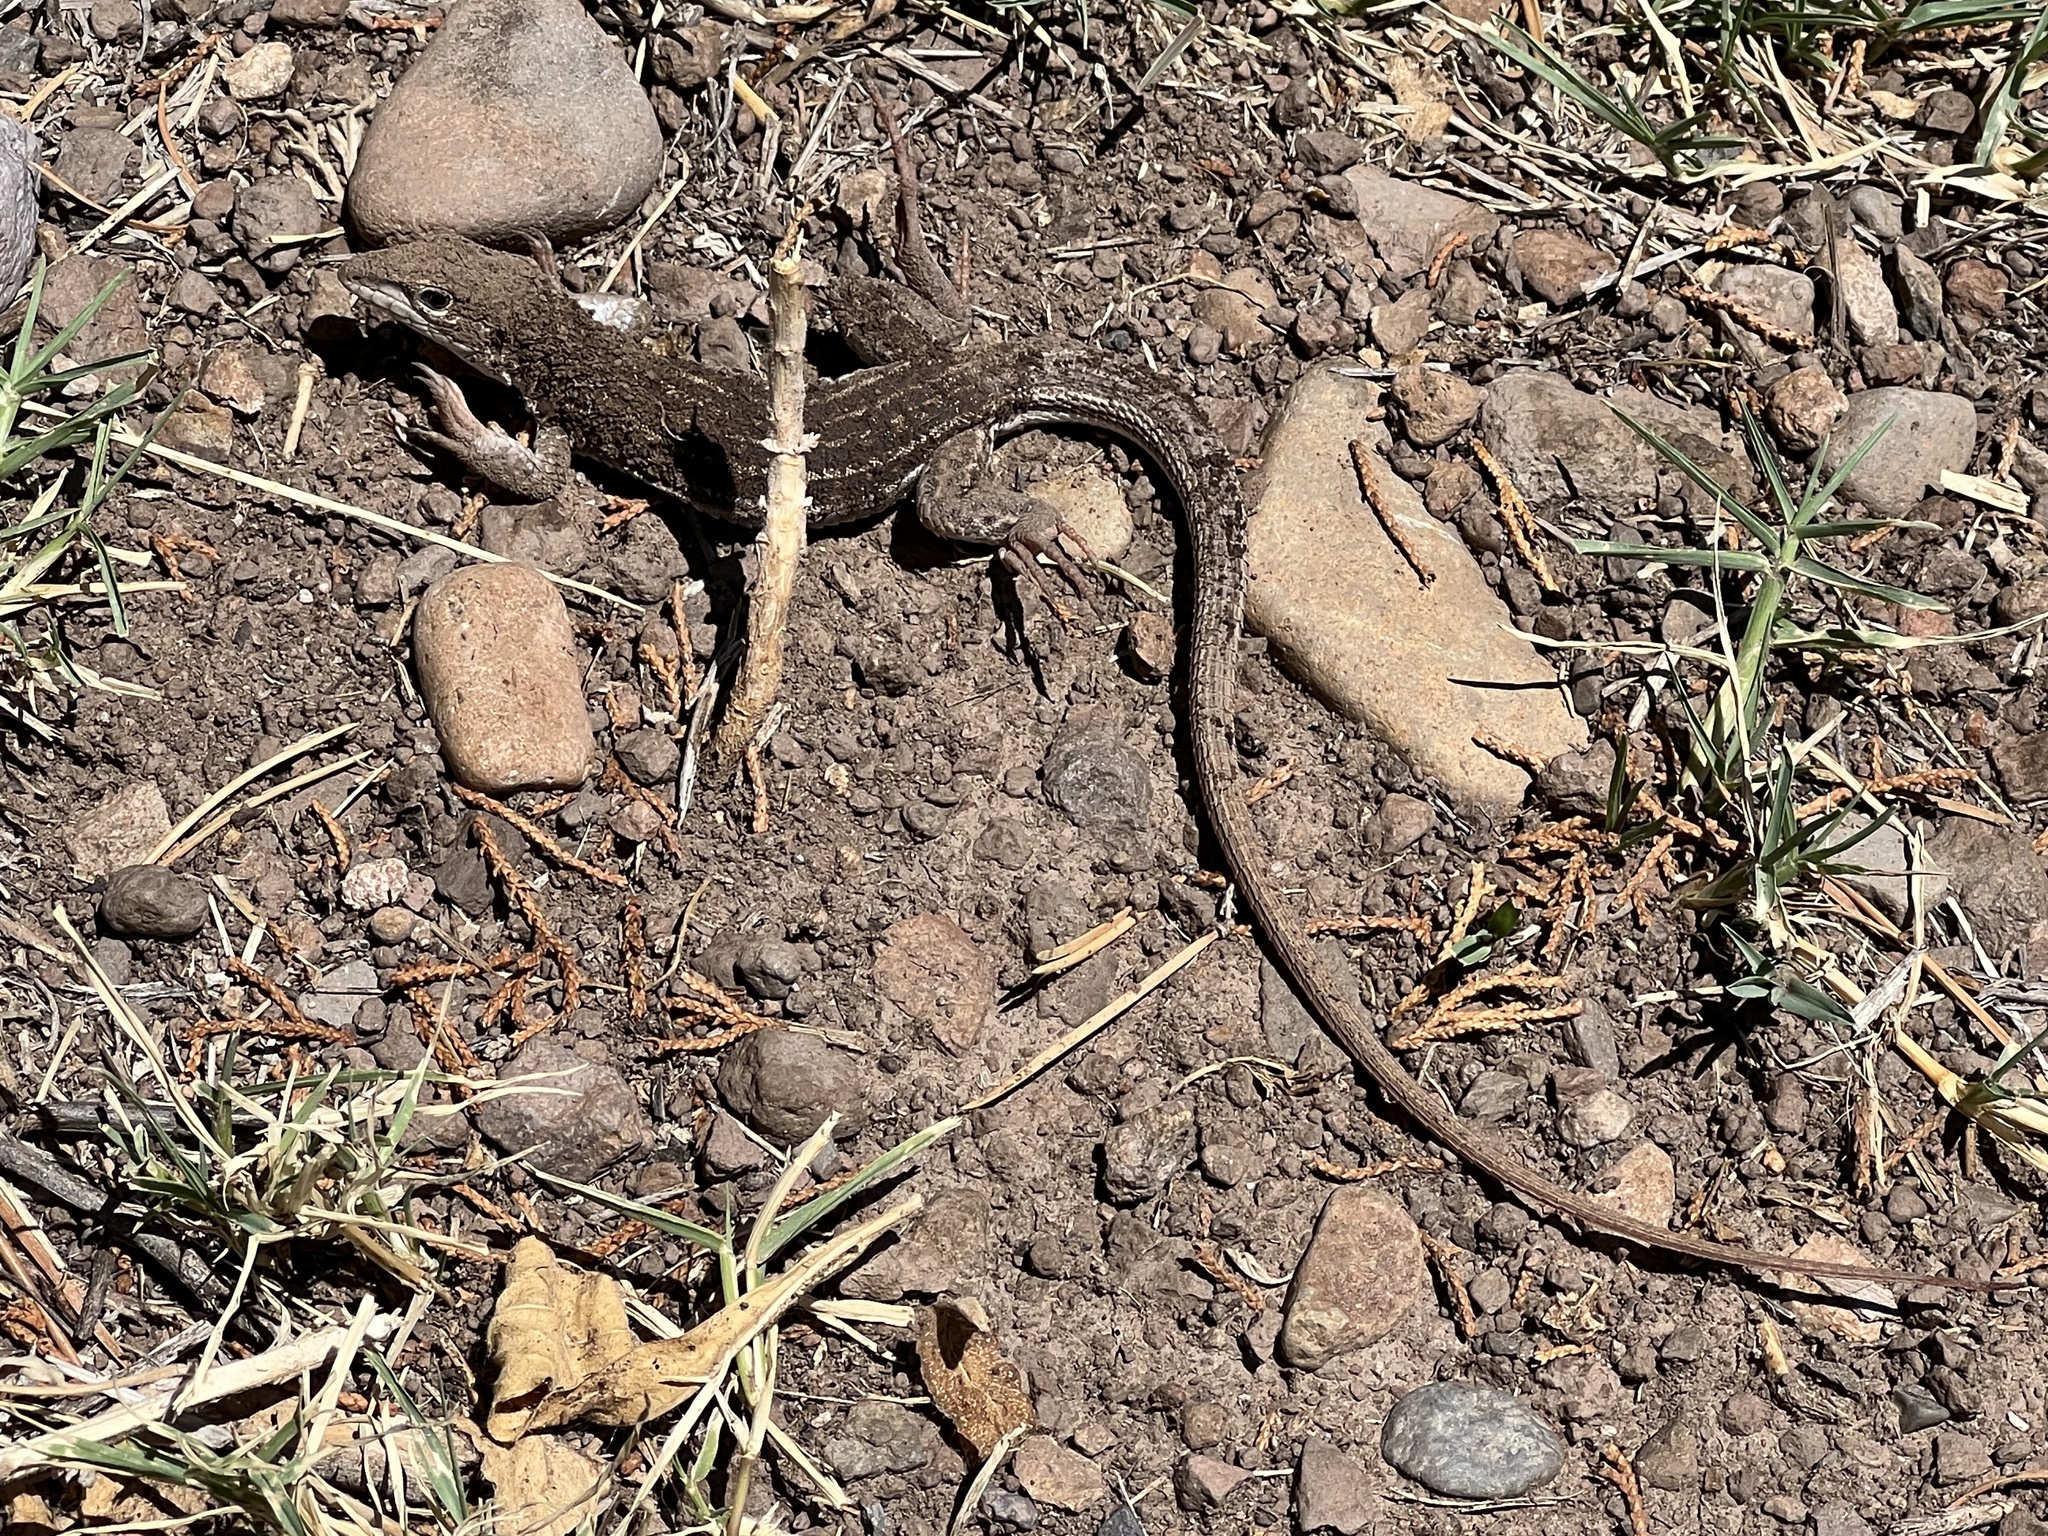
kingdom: Animalia
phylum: Chordata
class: Squamata
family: Teiidae
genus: Aspidoscelis
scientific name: Aspidoscelis exsanguis
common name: Chihuahuan spotted whiptail
